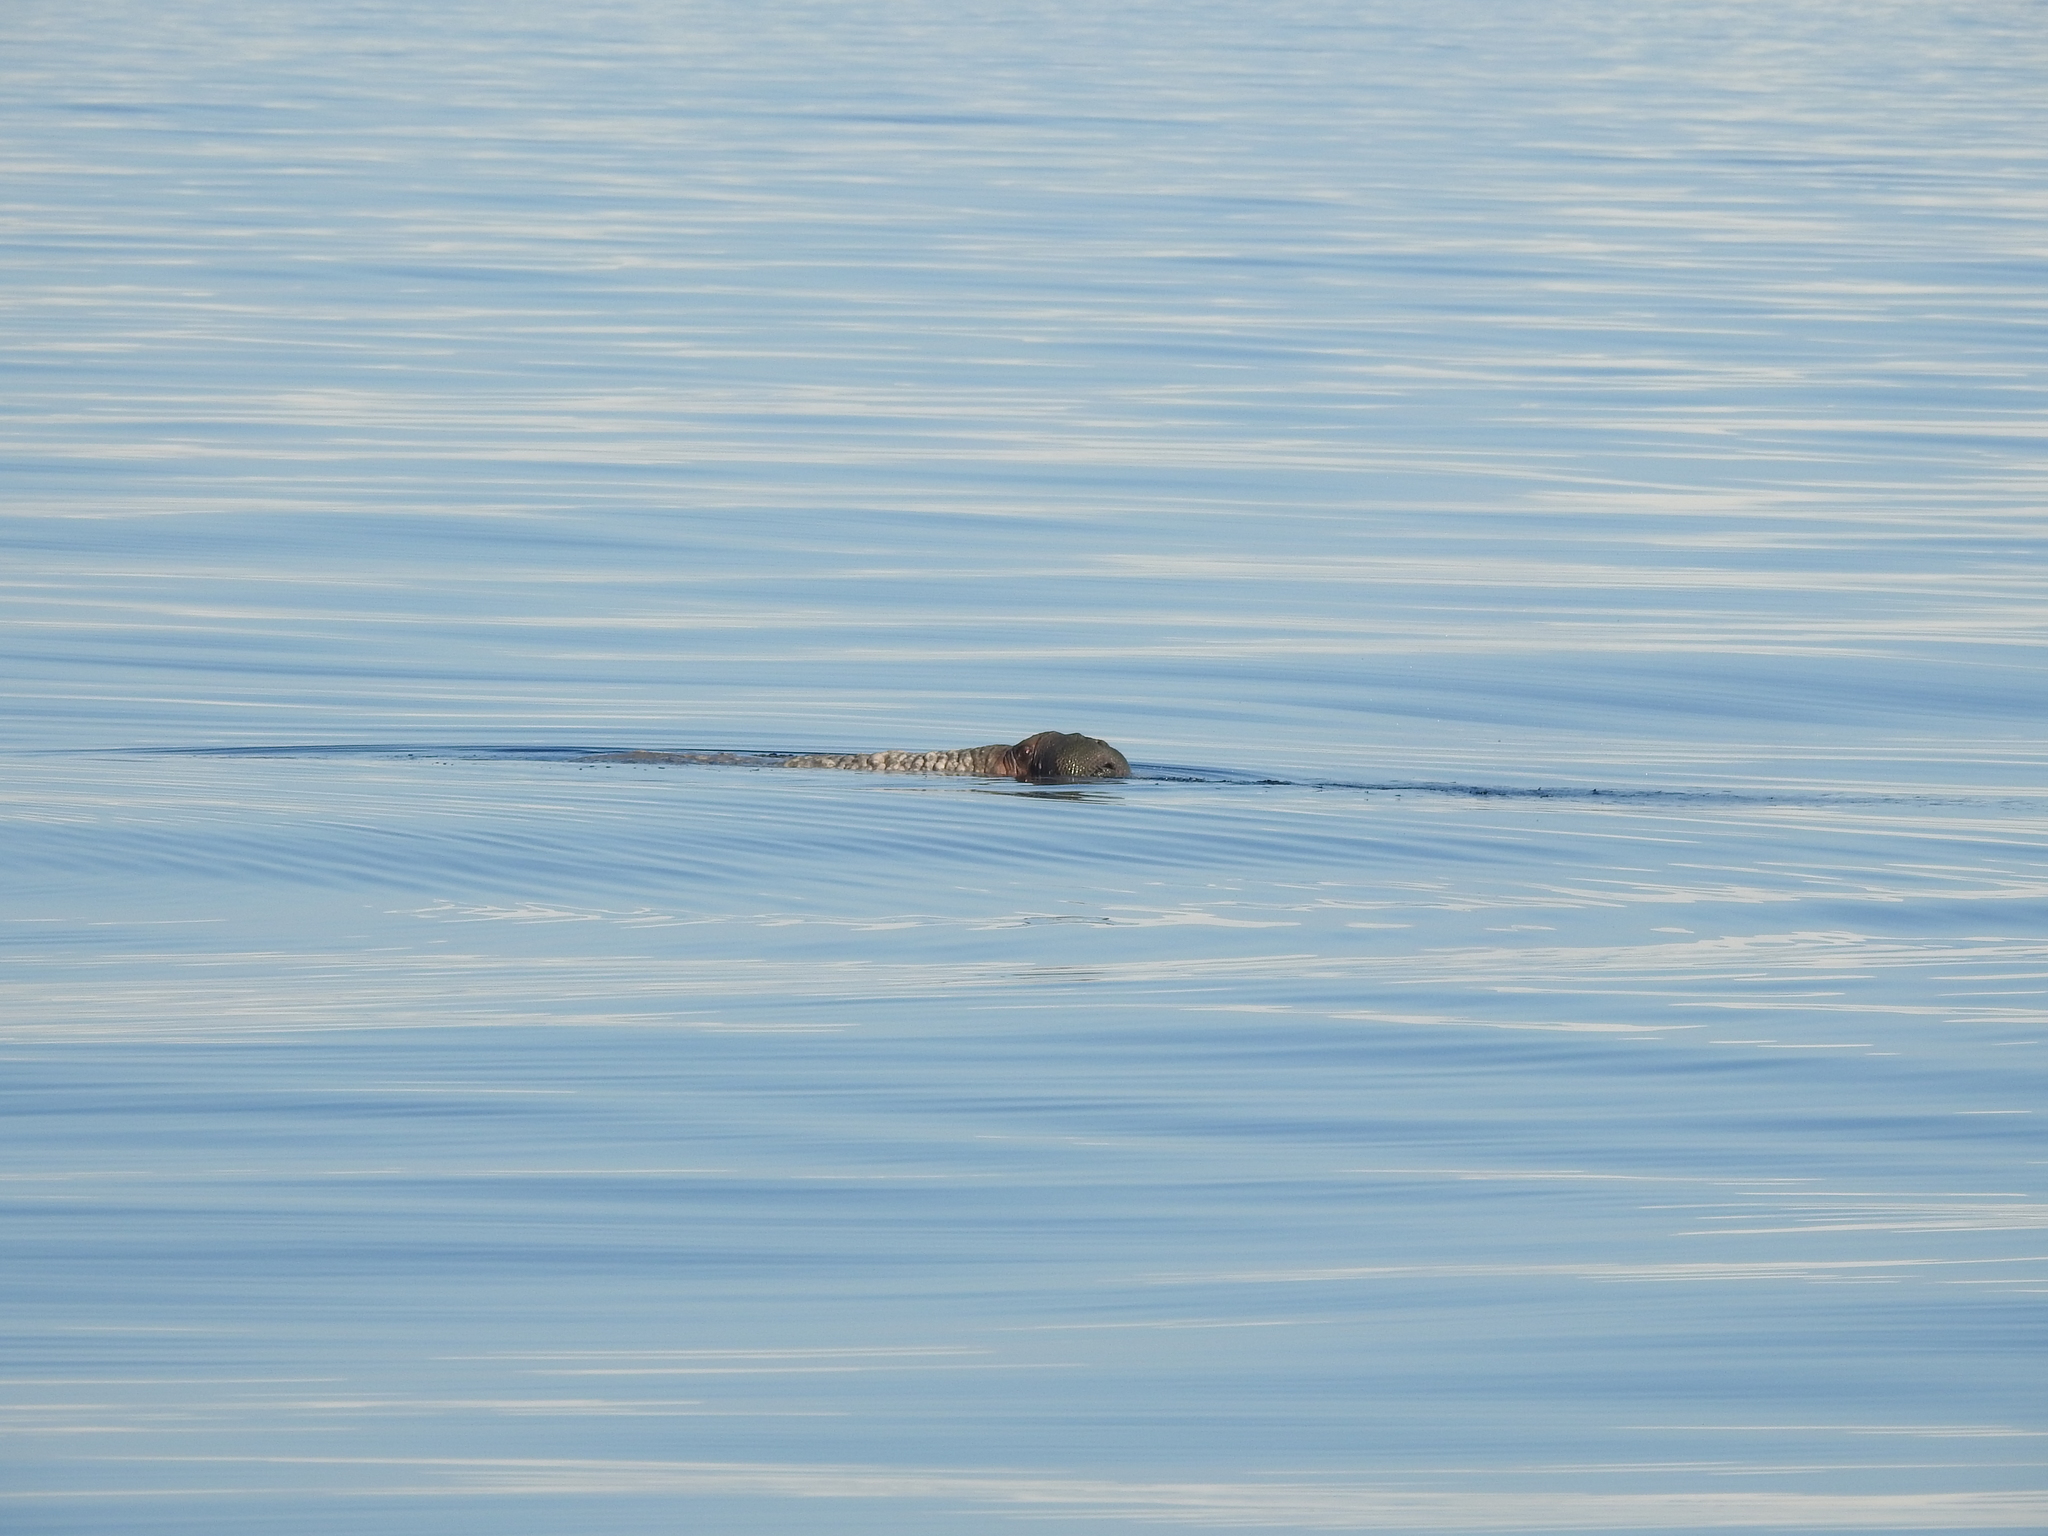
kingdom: Animalia
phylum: Chordata
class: Mammalia
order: Carnivora
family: Odobenidae
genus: Odobenus
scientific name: Odobenus rosmarus
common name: Walrus
